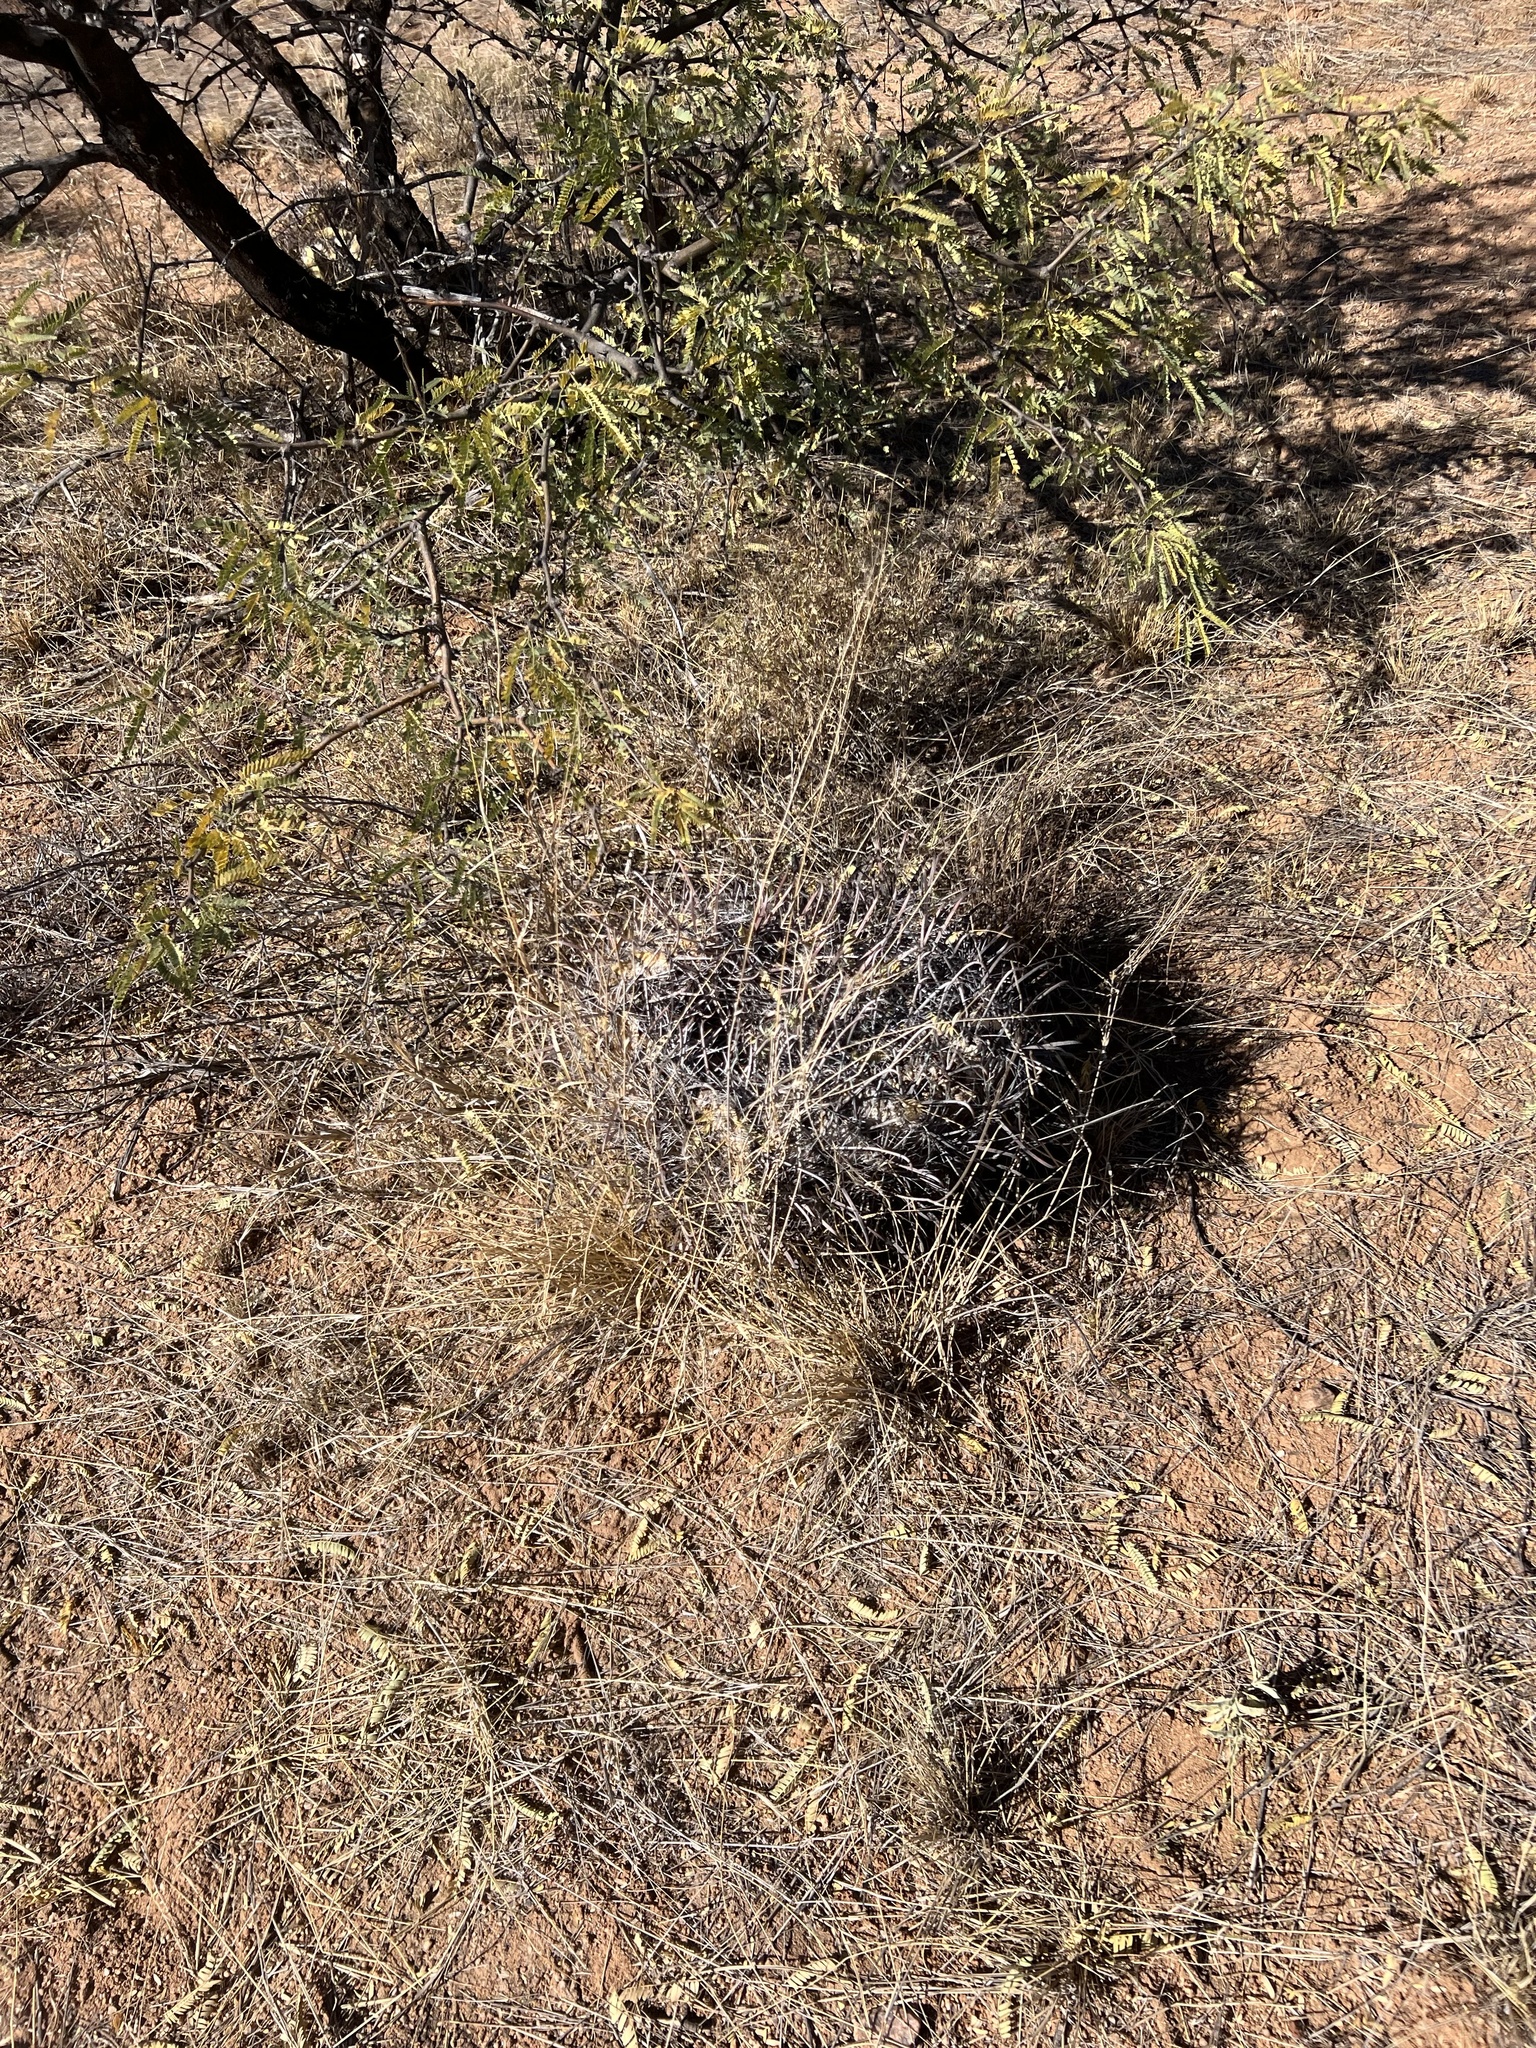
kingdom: Plantae
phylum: Tracheophyta
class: Magnoliopsida
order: Caryophyllales
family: Cactaceae
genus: Ferocactus
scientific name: Ferocactus wislizeni
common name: Candy barrel cactus
